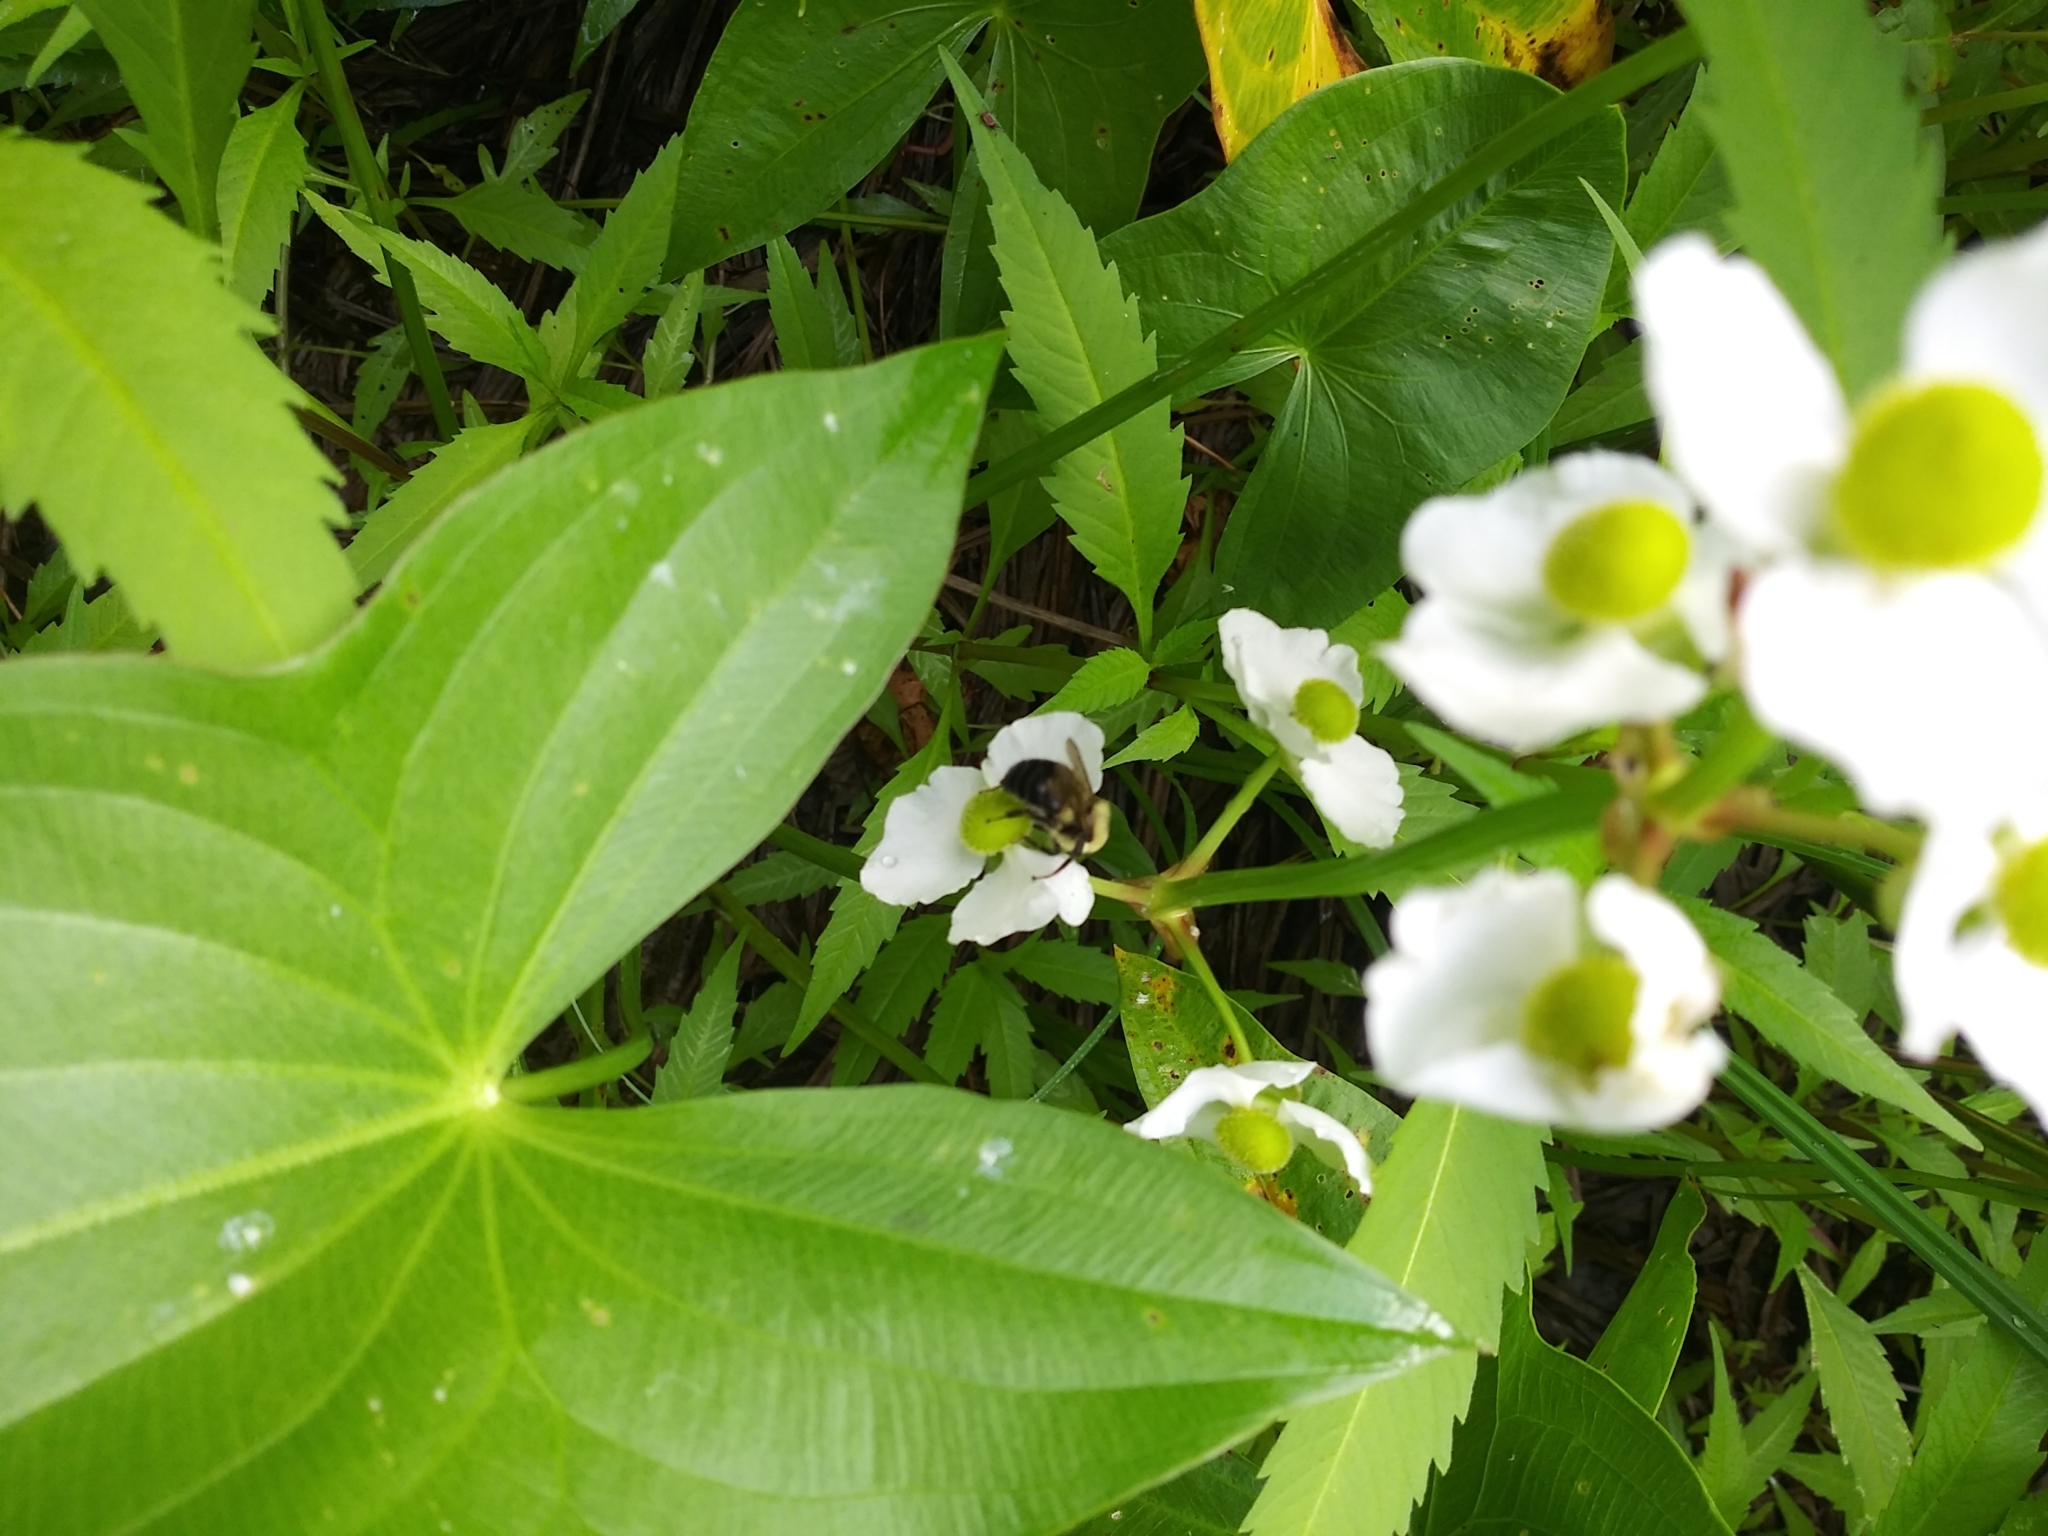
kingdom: Plantae
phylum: Tracheophyta
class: Liliopsida
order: Alismatales
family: Alismataceae
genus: Sagittaria
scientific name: Sagittaria latifolia
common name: Duck-potato
